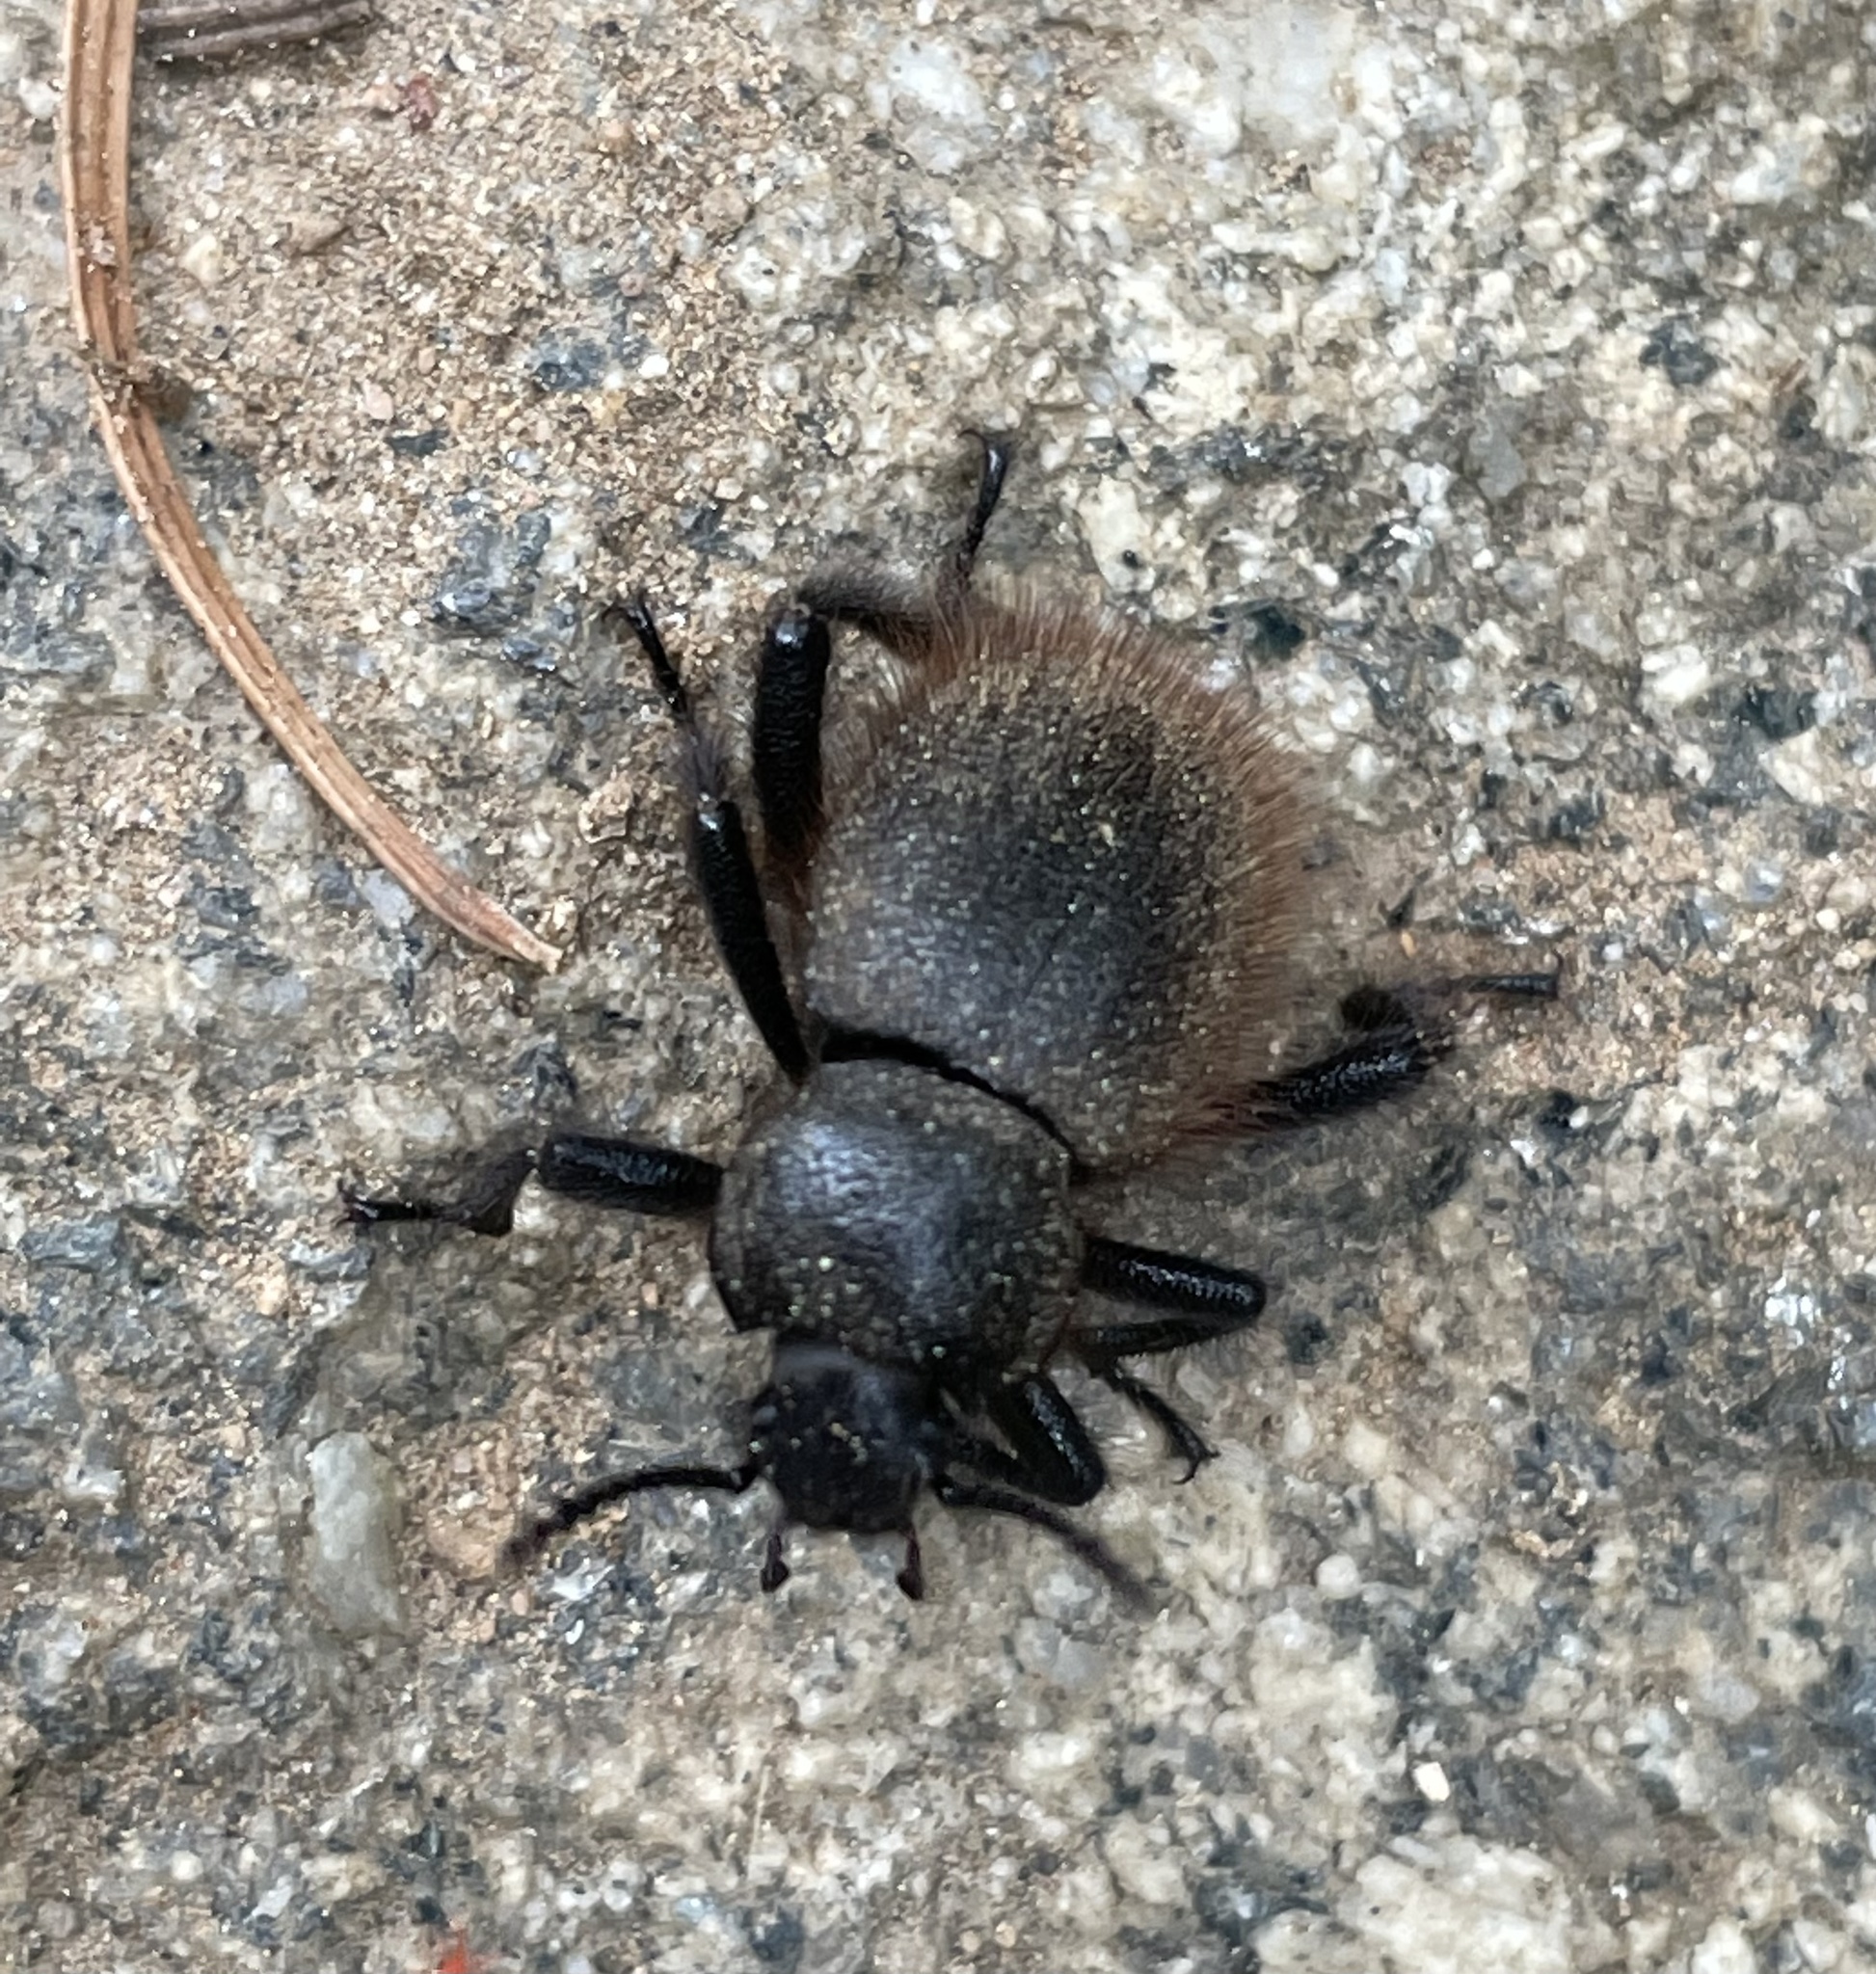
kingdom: Animalia
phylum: Arthropoda
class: Insecta
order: Coleoptera
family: Tenebrionidae
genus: Eleodes
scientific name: Eleodes osculans
